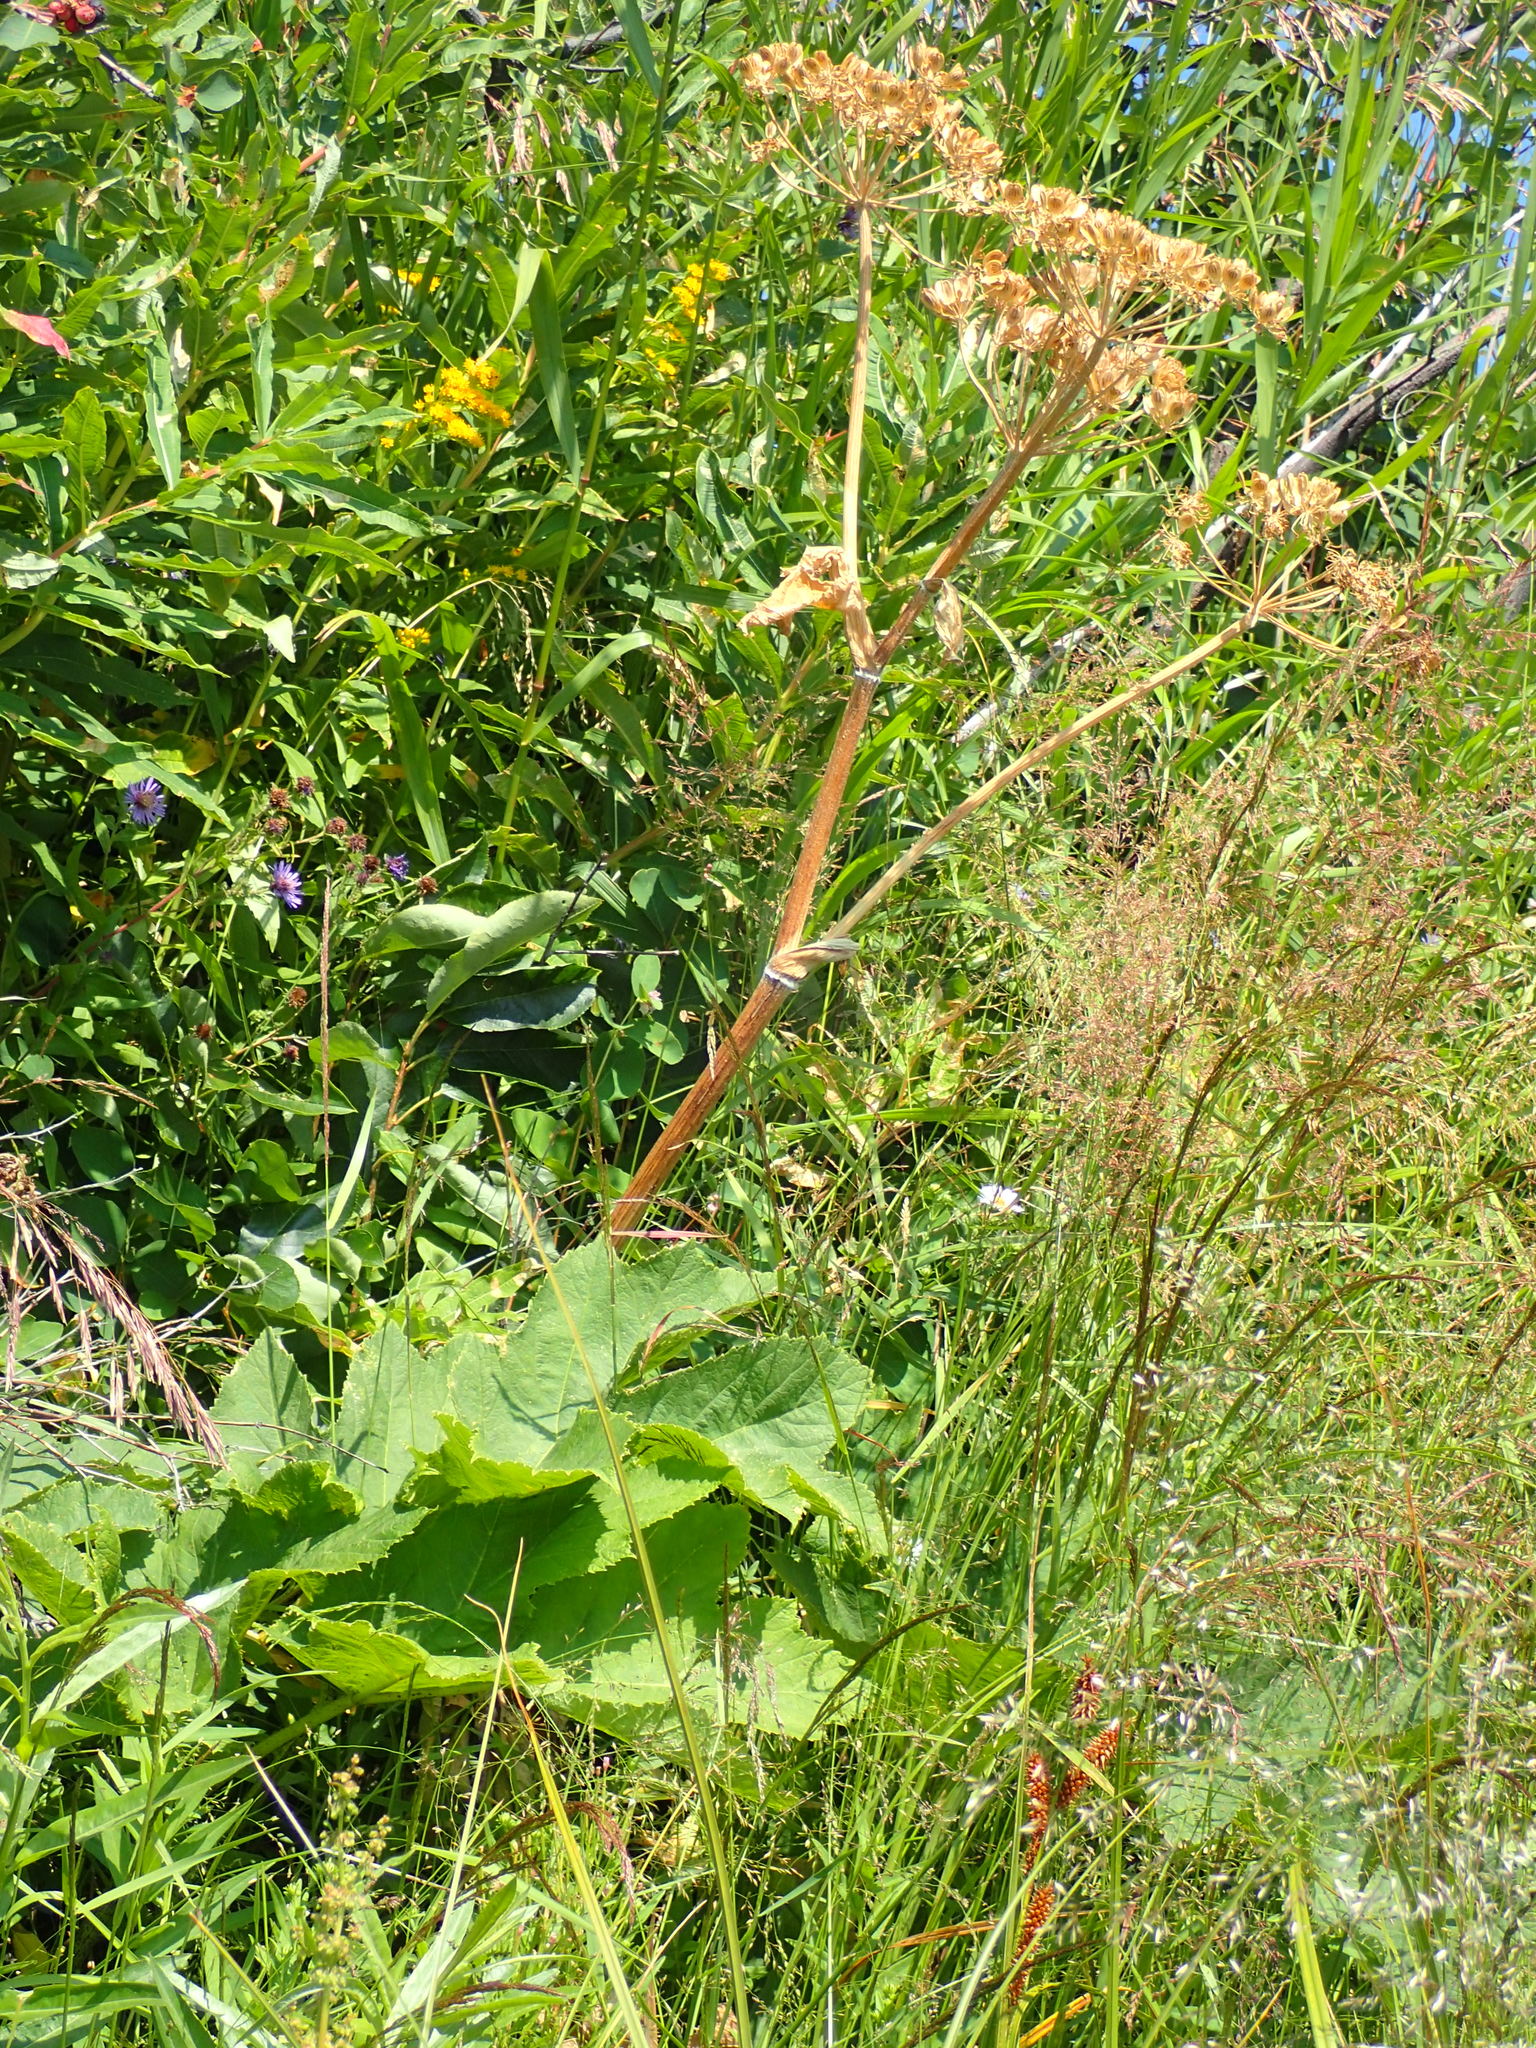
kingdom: Plantae
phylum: Tracheophyta
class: Magnoliopsida
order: Apiales
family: Apiaceae
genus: Heracleum
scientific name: Heracleum maximum
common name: American cow parsnip
